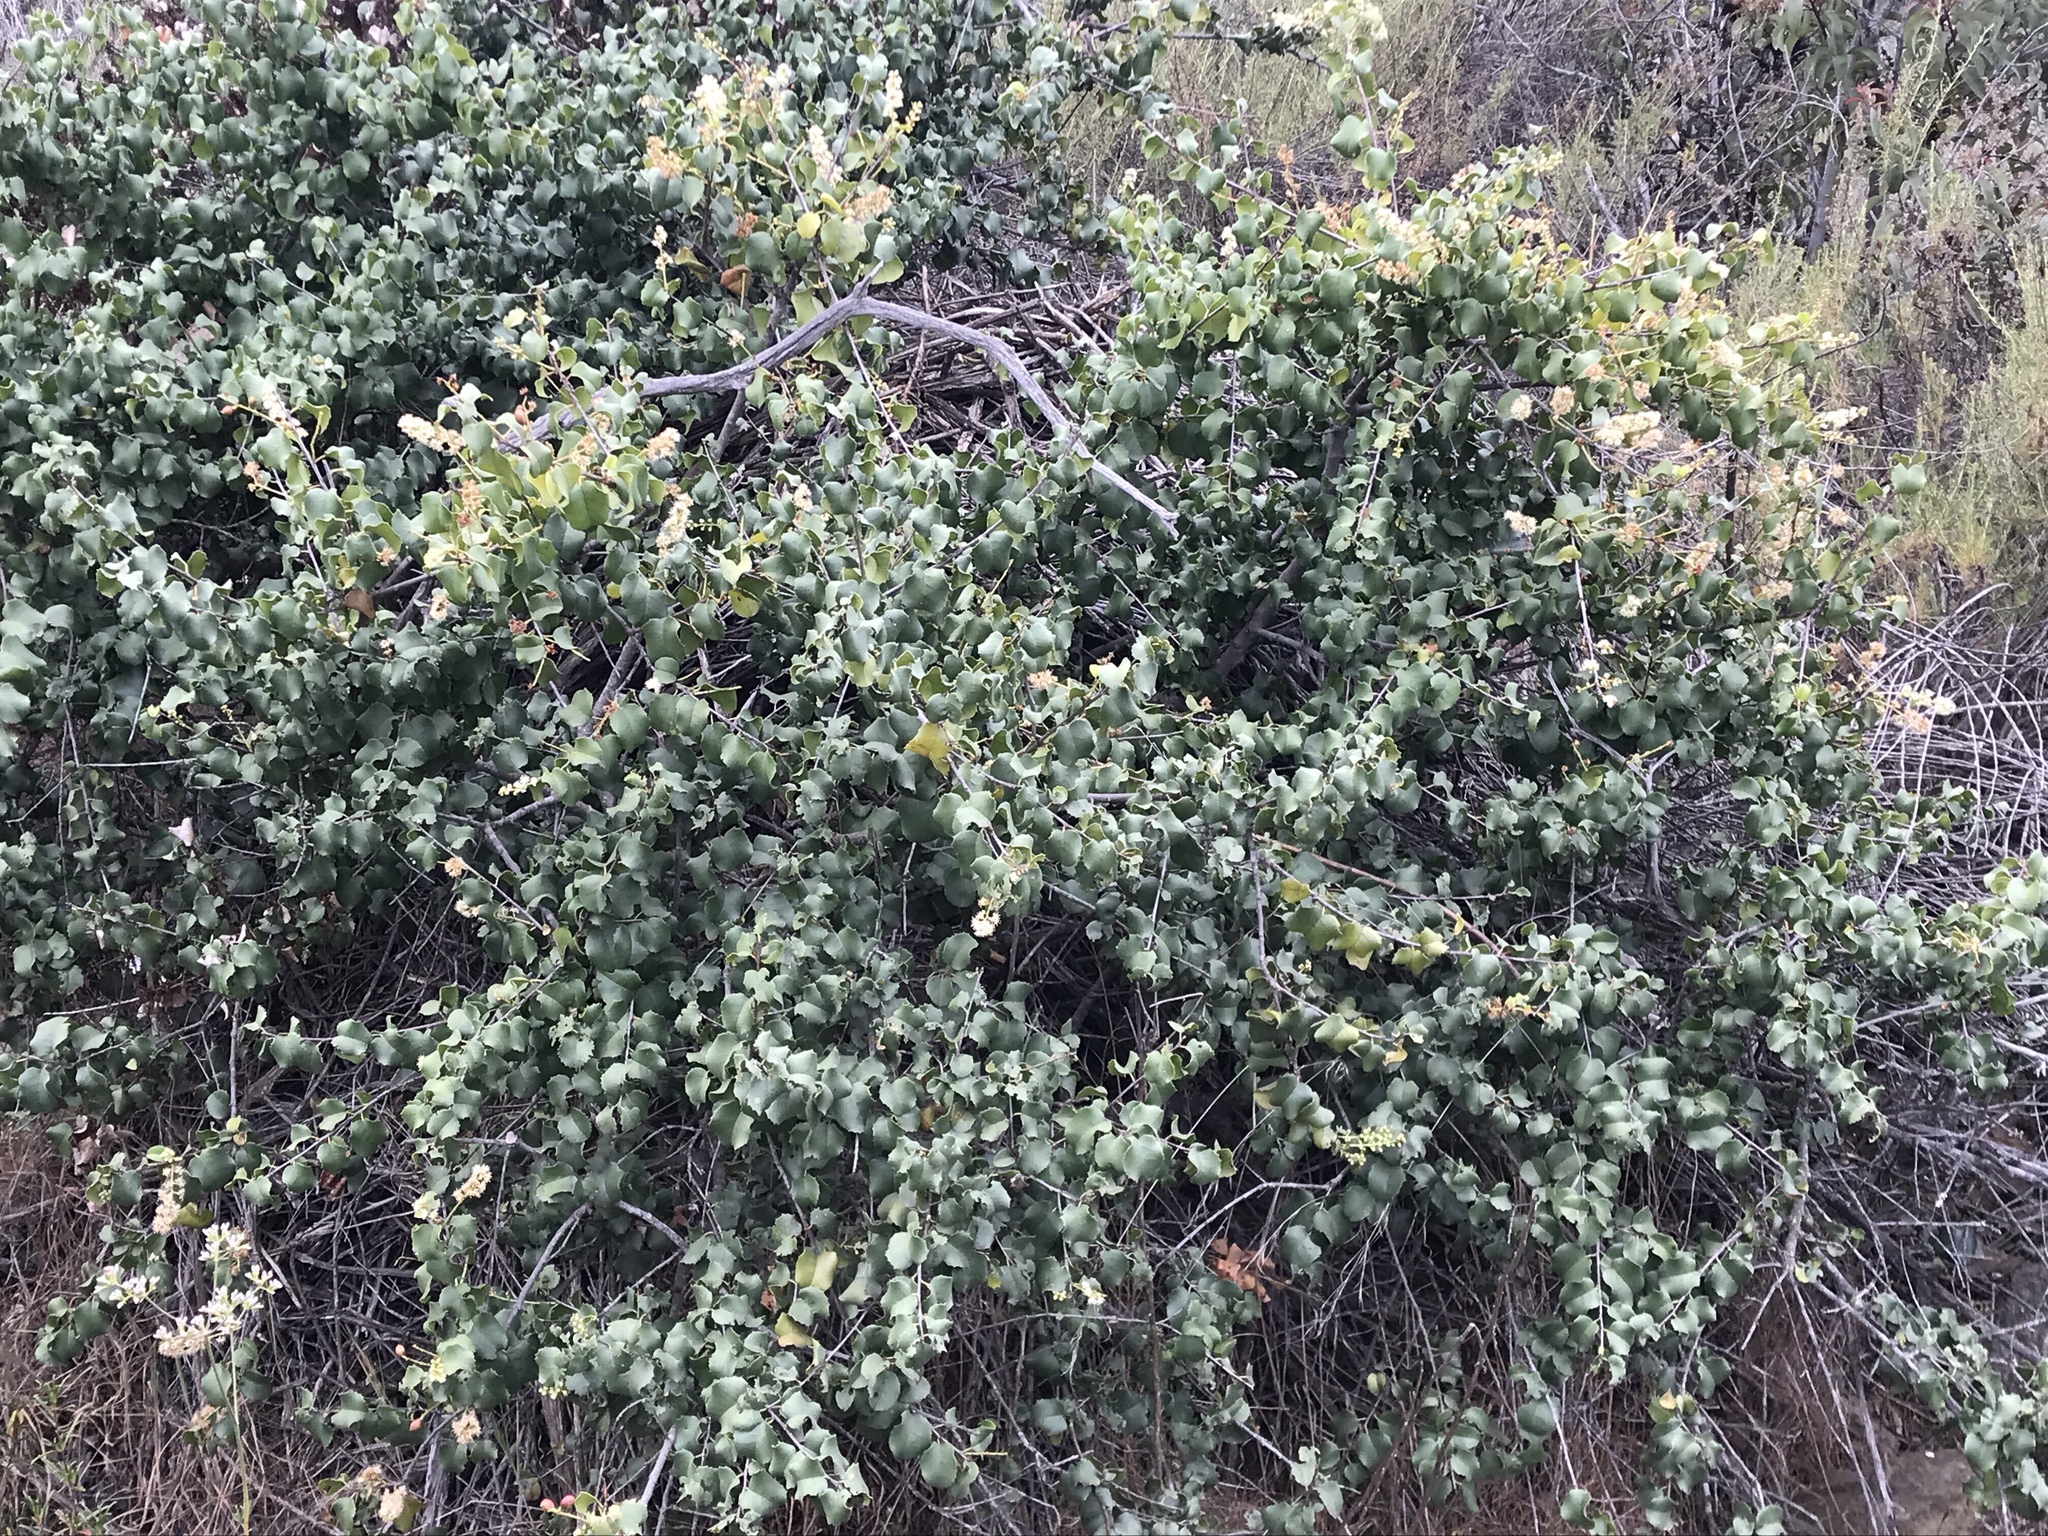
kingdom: Plantae
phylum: Tracheophyta
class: Magnoliopsida
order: Rosales
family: Rosaceae
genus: Prunus
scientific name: Prunus ilicifolia
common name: Hollyleaf cherry
